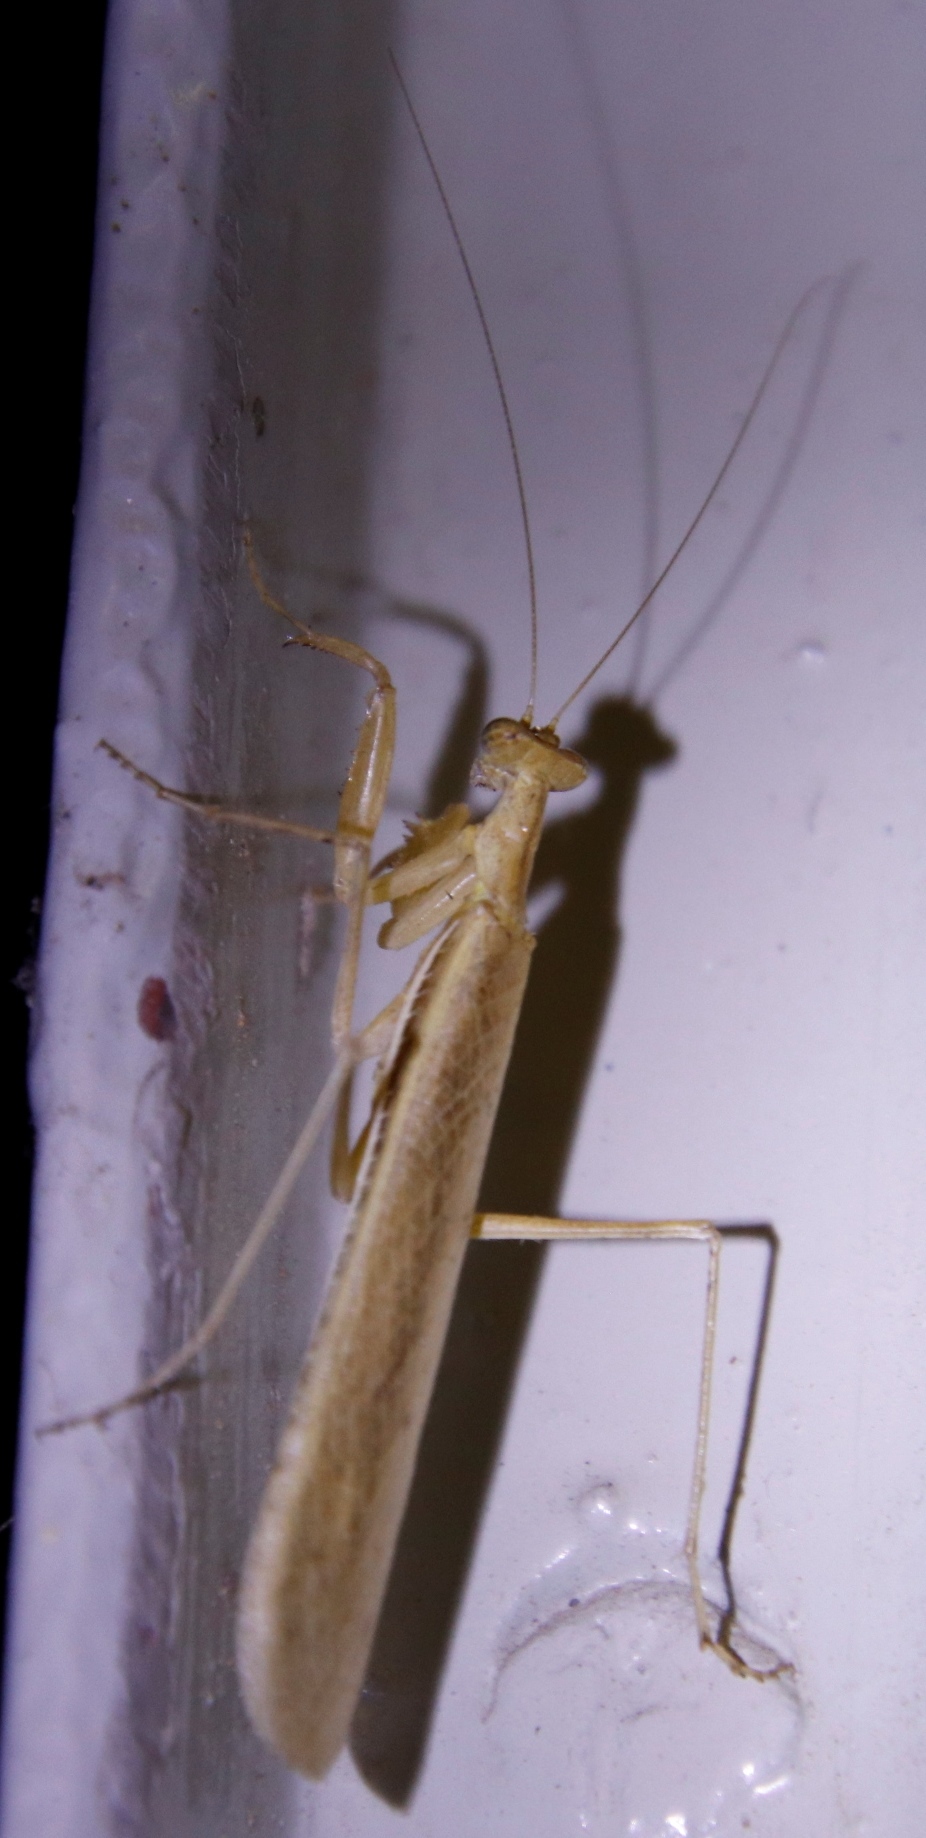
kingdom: Animalia
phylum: Arthropoda
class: Insecta
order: Mantodea
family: Chroicopteridae
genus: Ligariella
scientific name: Ligariella trigonalis
